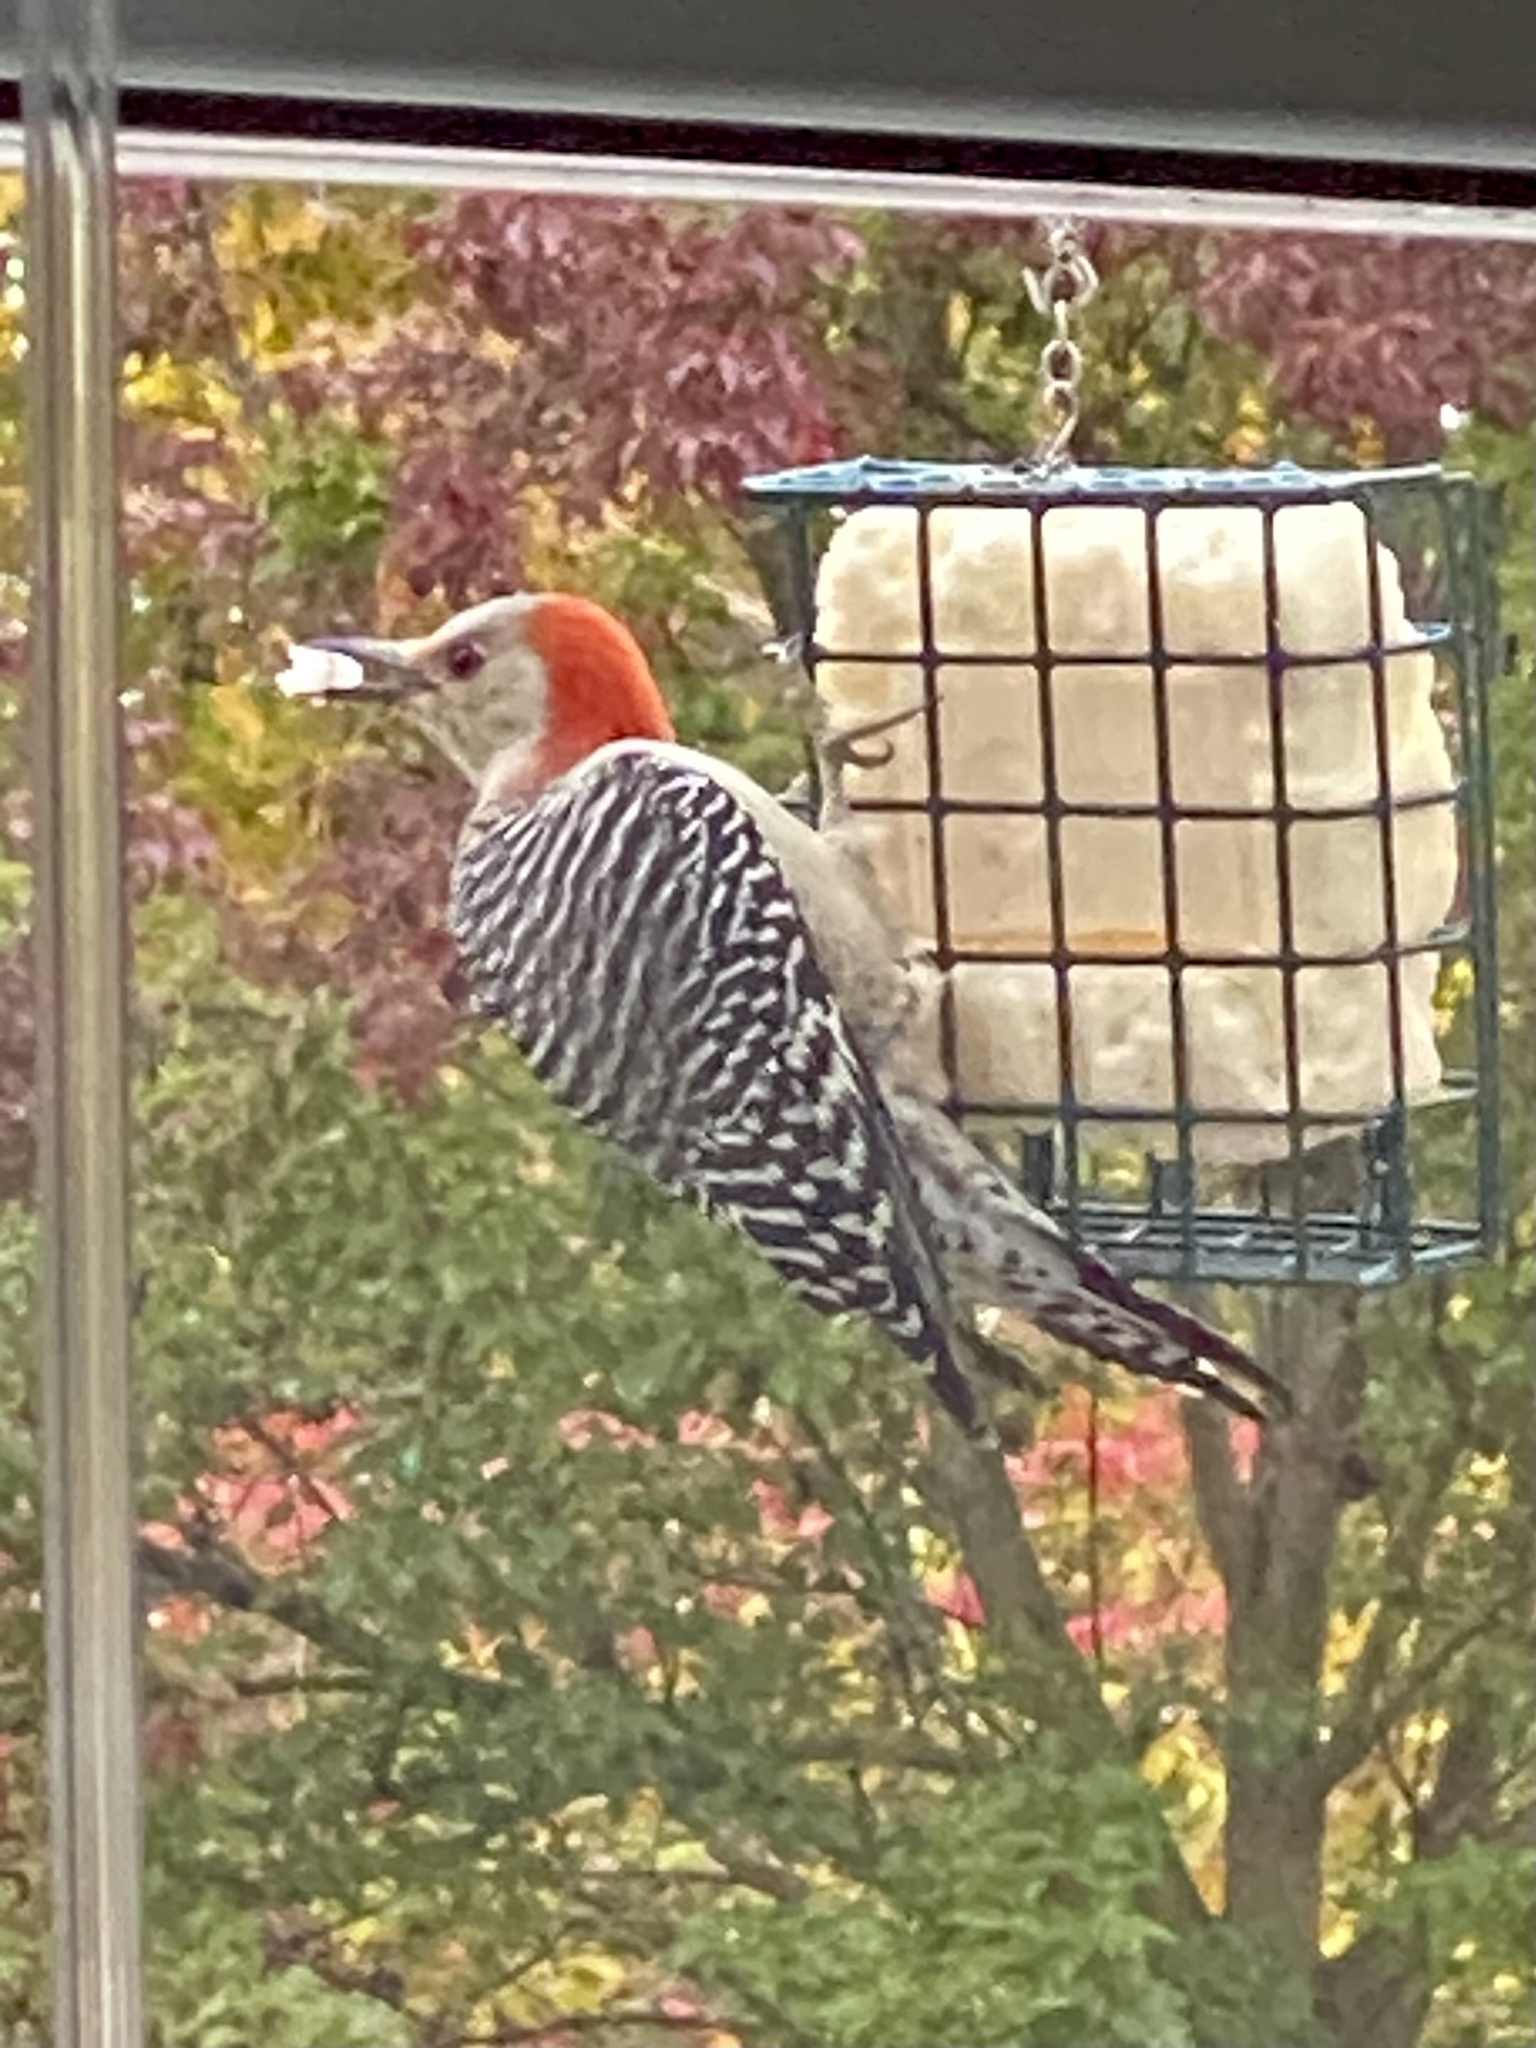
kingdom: Animalia
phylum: Chordata
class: Aves
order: Piciformes
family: Picidae
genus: Melanerpes
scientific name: Melanerpes carolinus
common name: Red-bellied woodpecker
